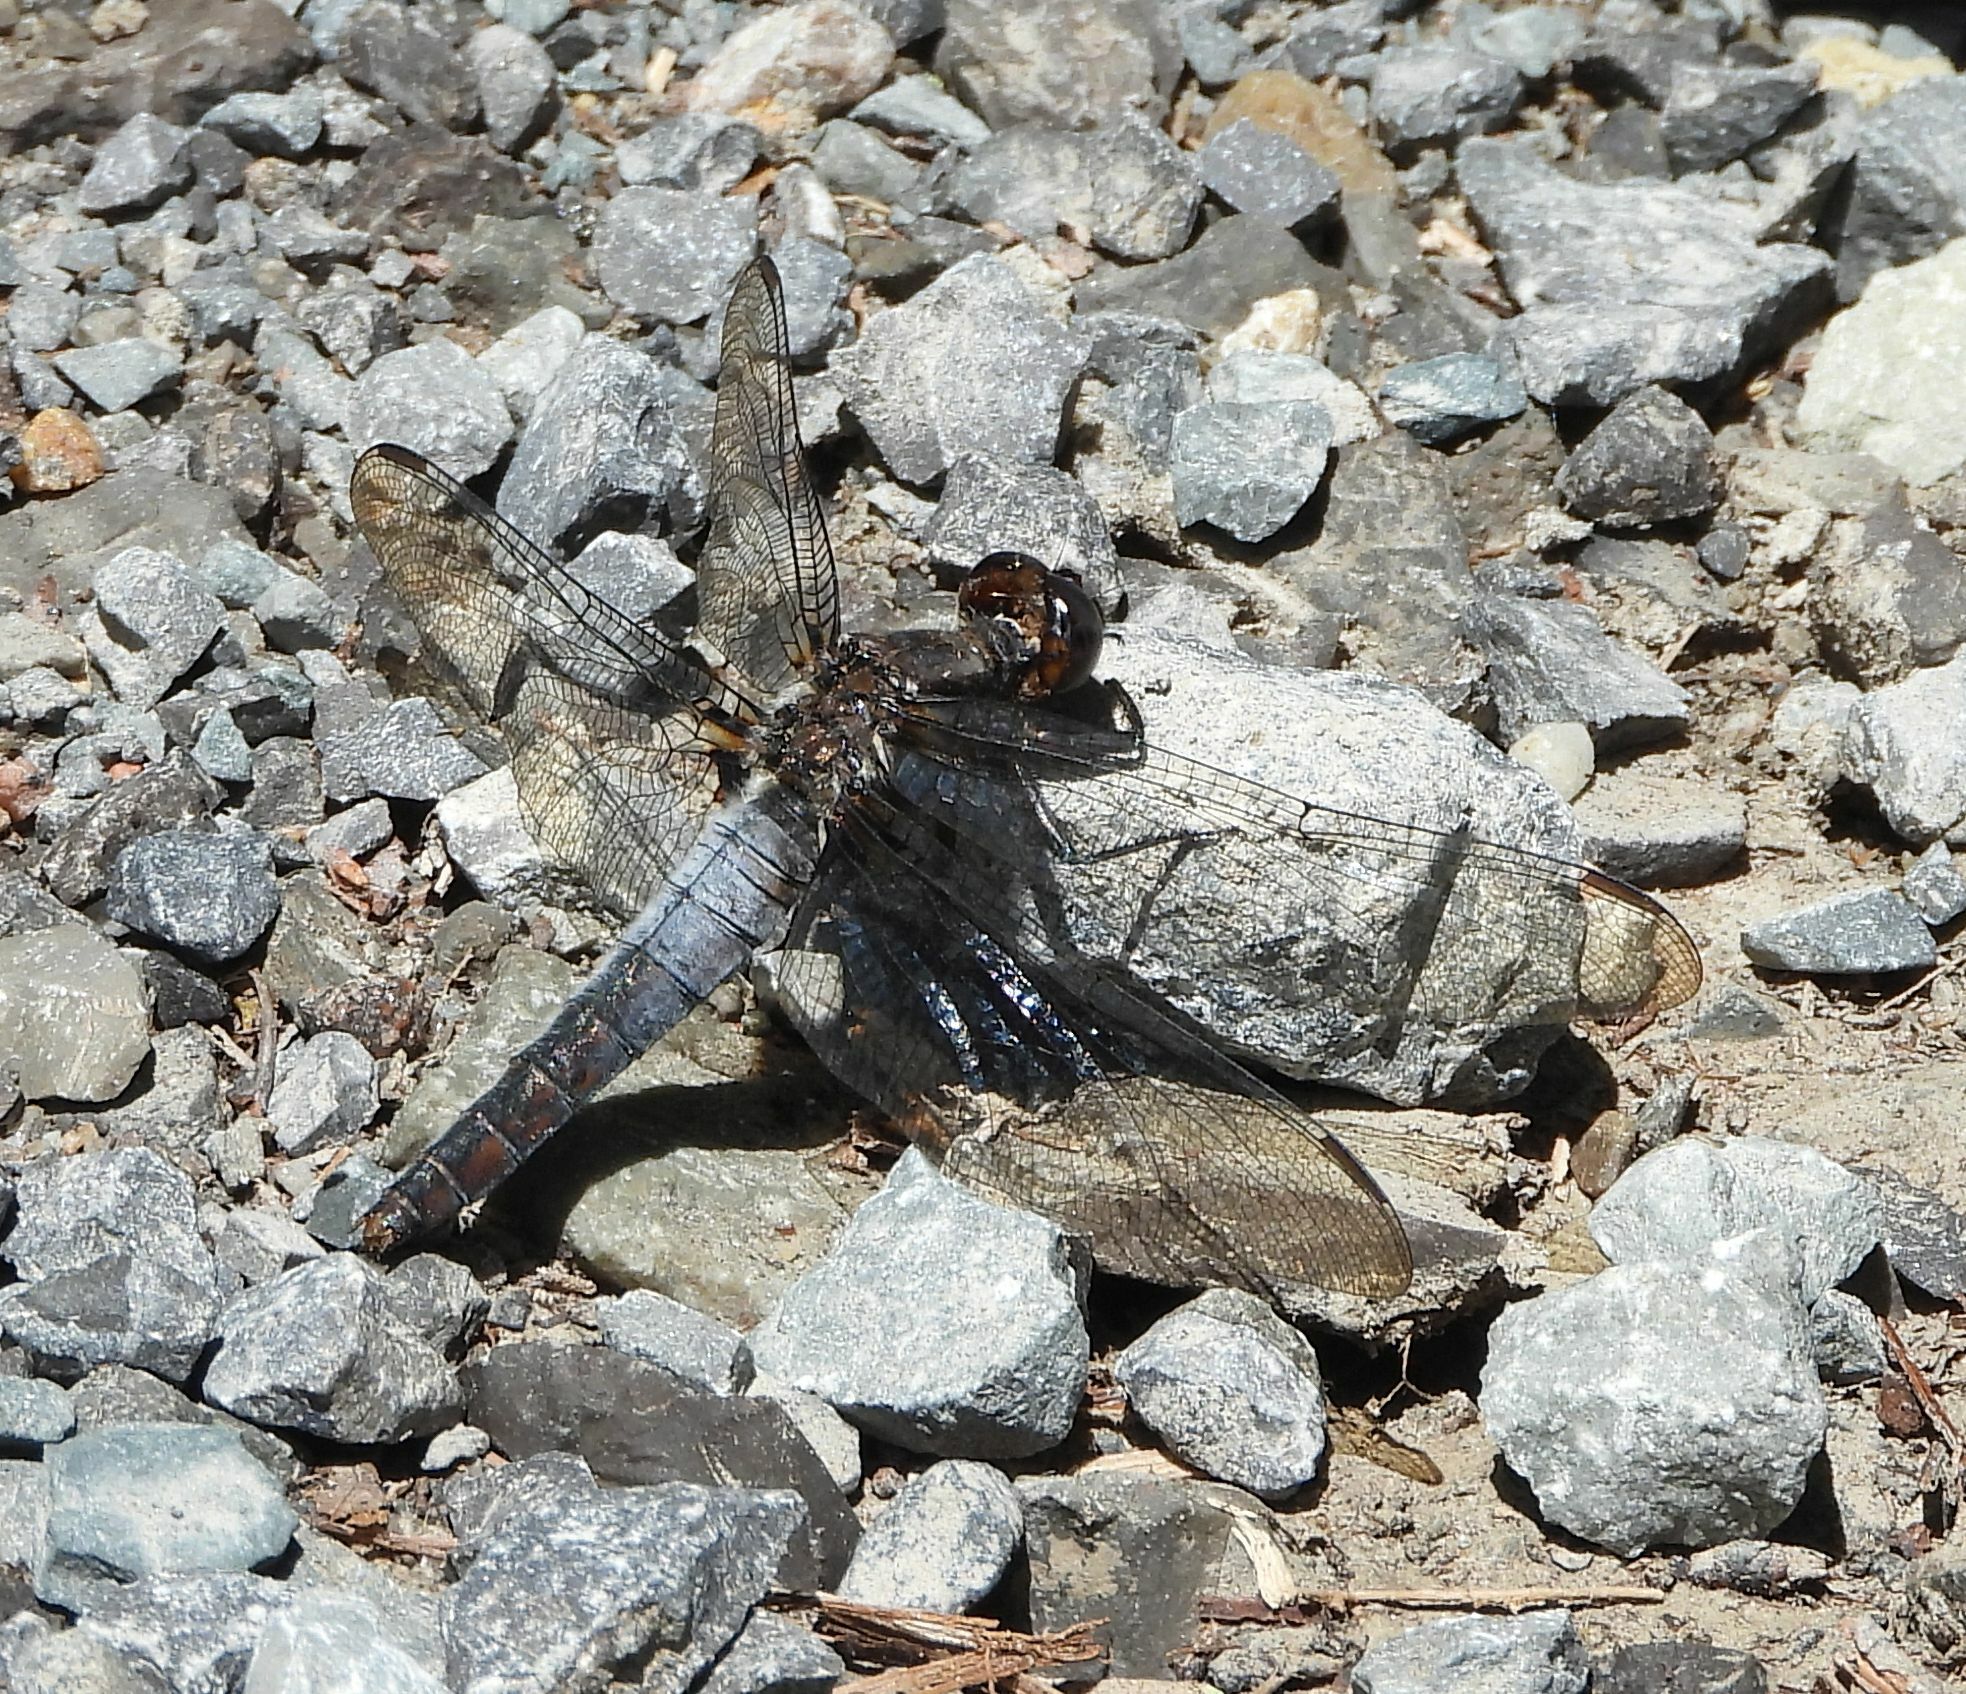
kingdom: Animalia
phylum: Arthropoda
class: Insecta
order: Odonata
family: Libellulidae
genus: Ladona
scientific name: Ladona julia
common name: Chalk-fronted corporal
